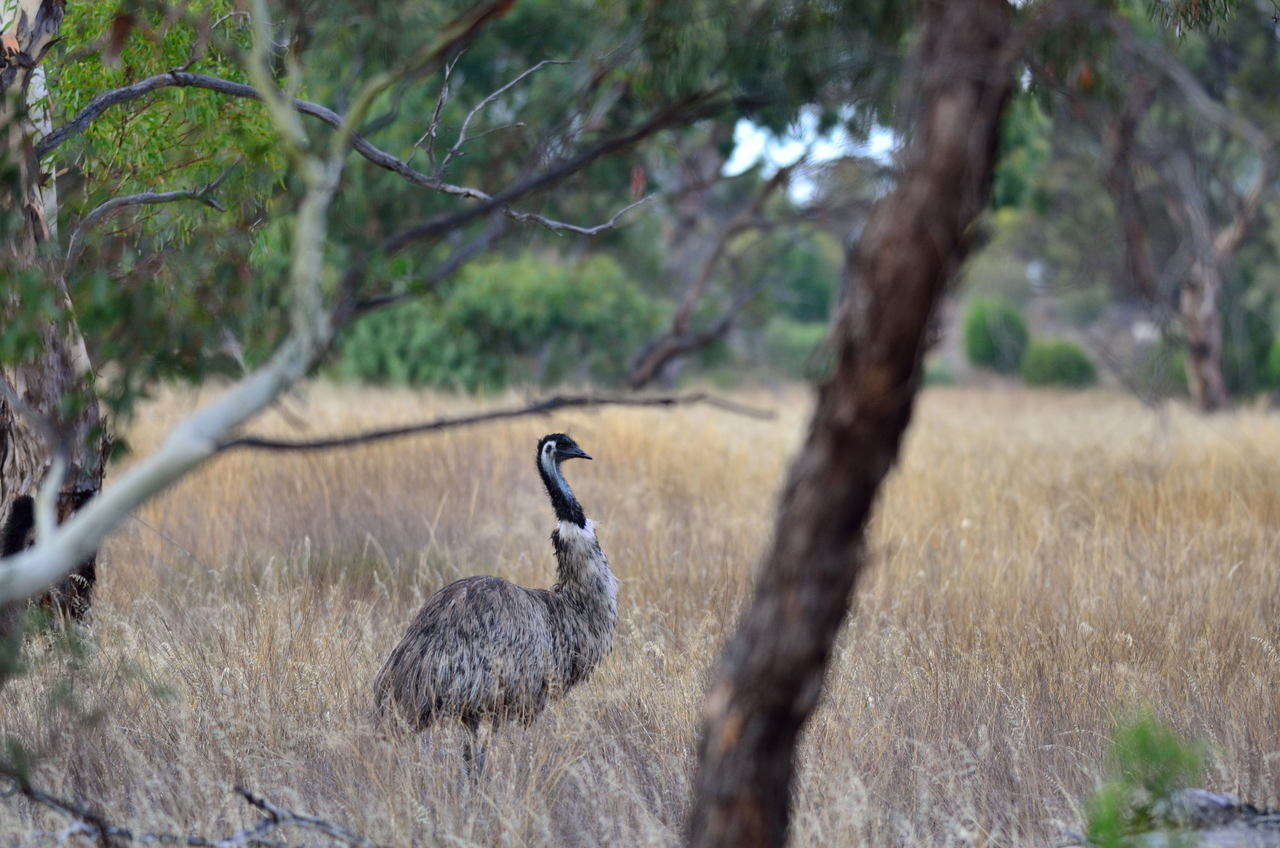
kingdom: Animalia
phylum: Chordata
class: Aves
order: Casuariiformes
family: Dromaiidae
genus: Dromaius
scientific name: Dromaius novaehollandiae
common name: Emu
